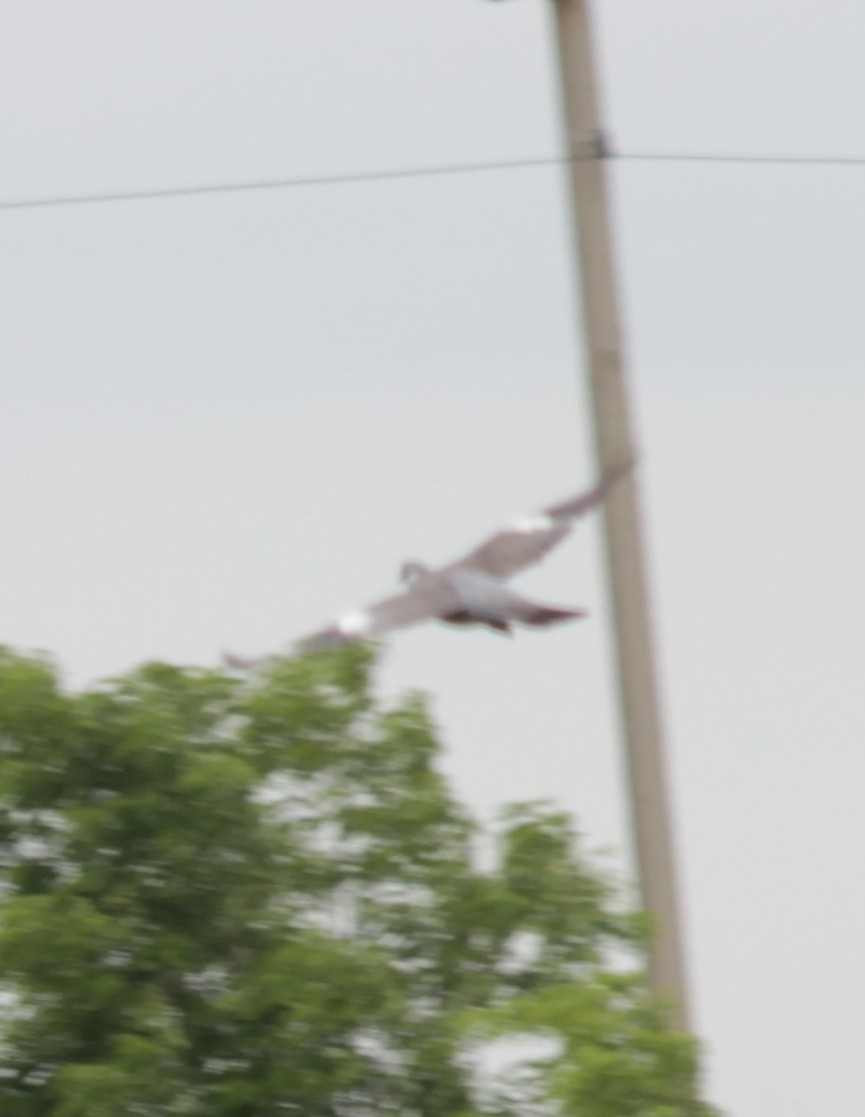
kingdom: Animalia
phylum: Chordata
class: Aves
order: Columbiformes
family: Columbidae
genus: Columba
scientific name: Columba palumbus
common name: Common wood pigeon
